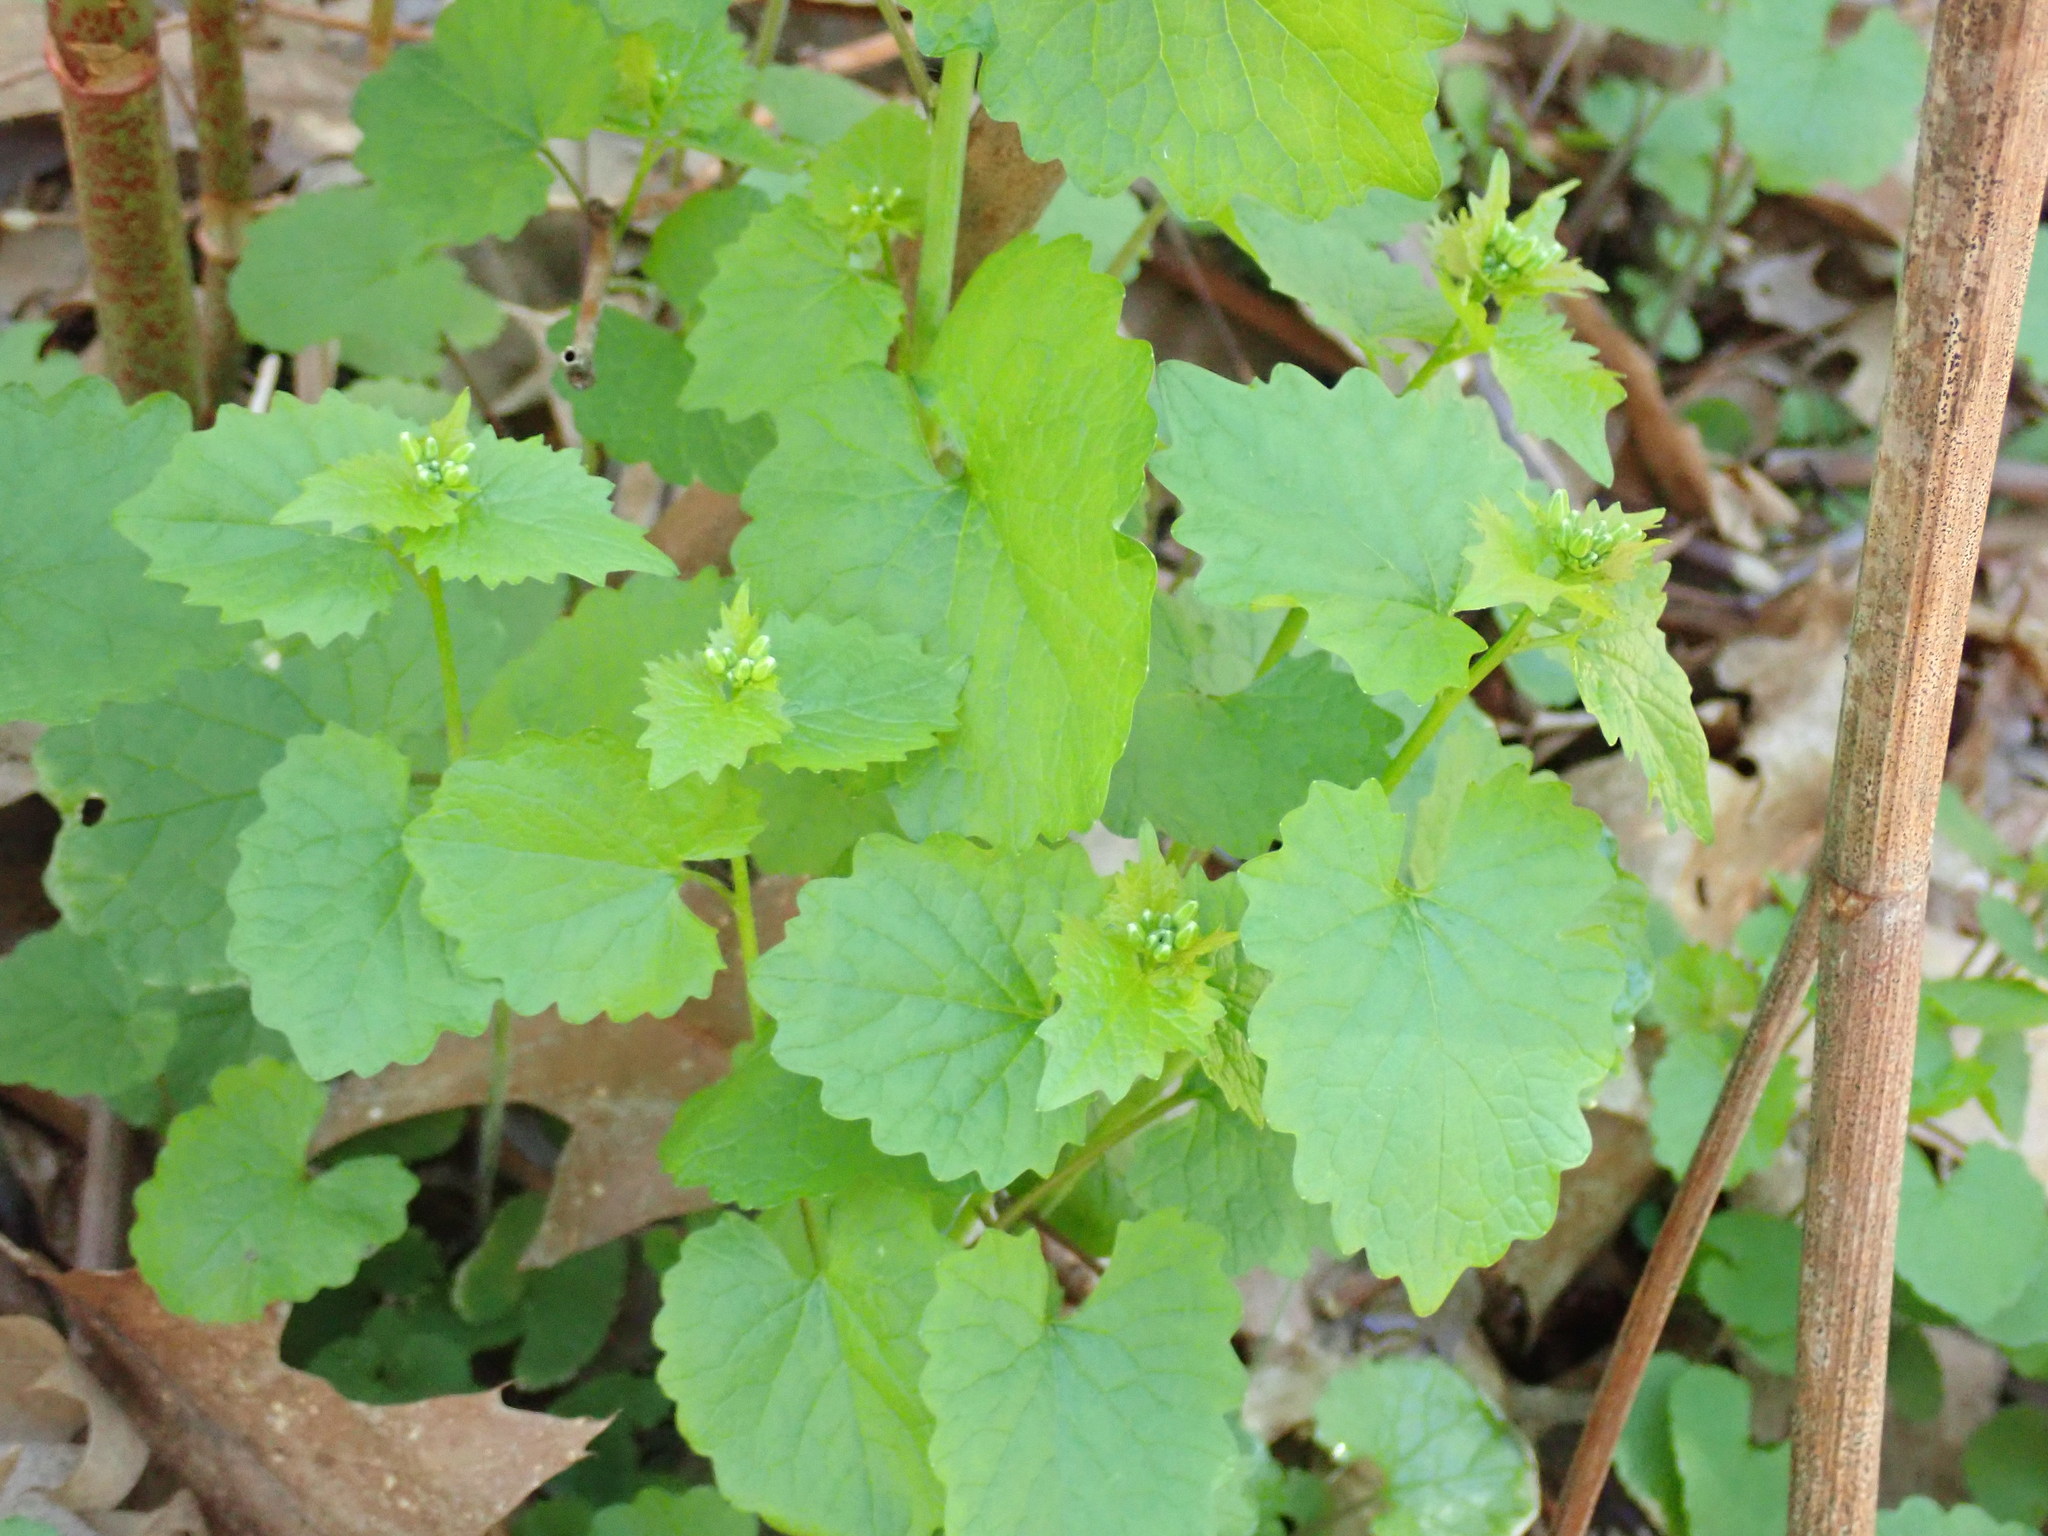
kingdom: Plantae
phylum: Tracheophyta
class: Magnoliopsida
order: Brassicales
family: Brassicaceae
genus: Alliaria
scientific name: Alliaria petiolata
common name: Garlic mustard
